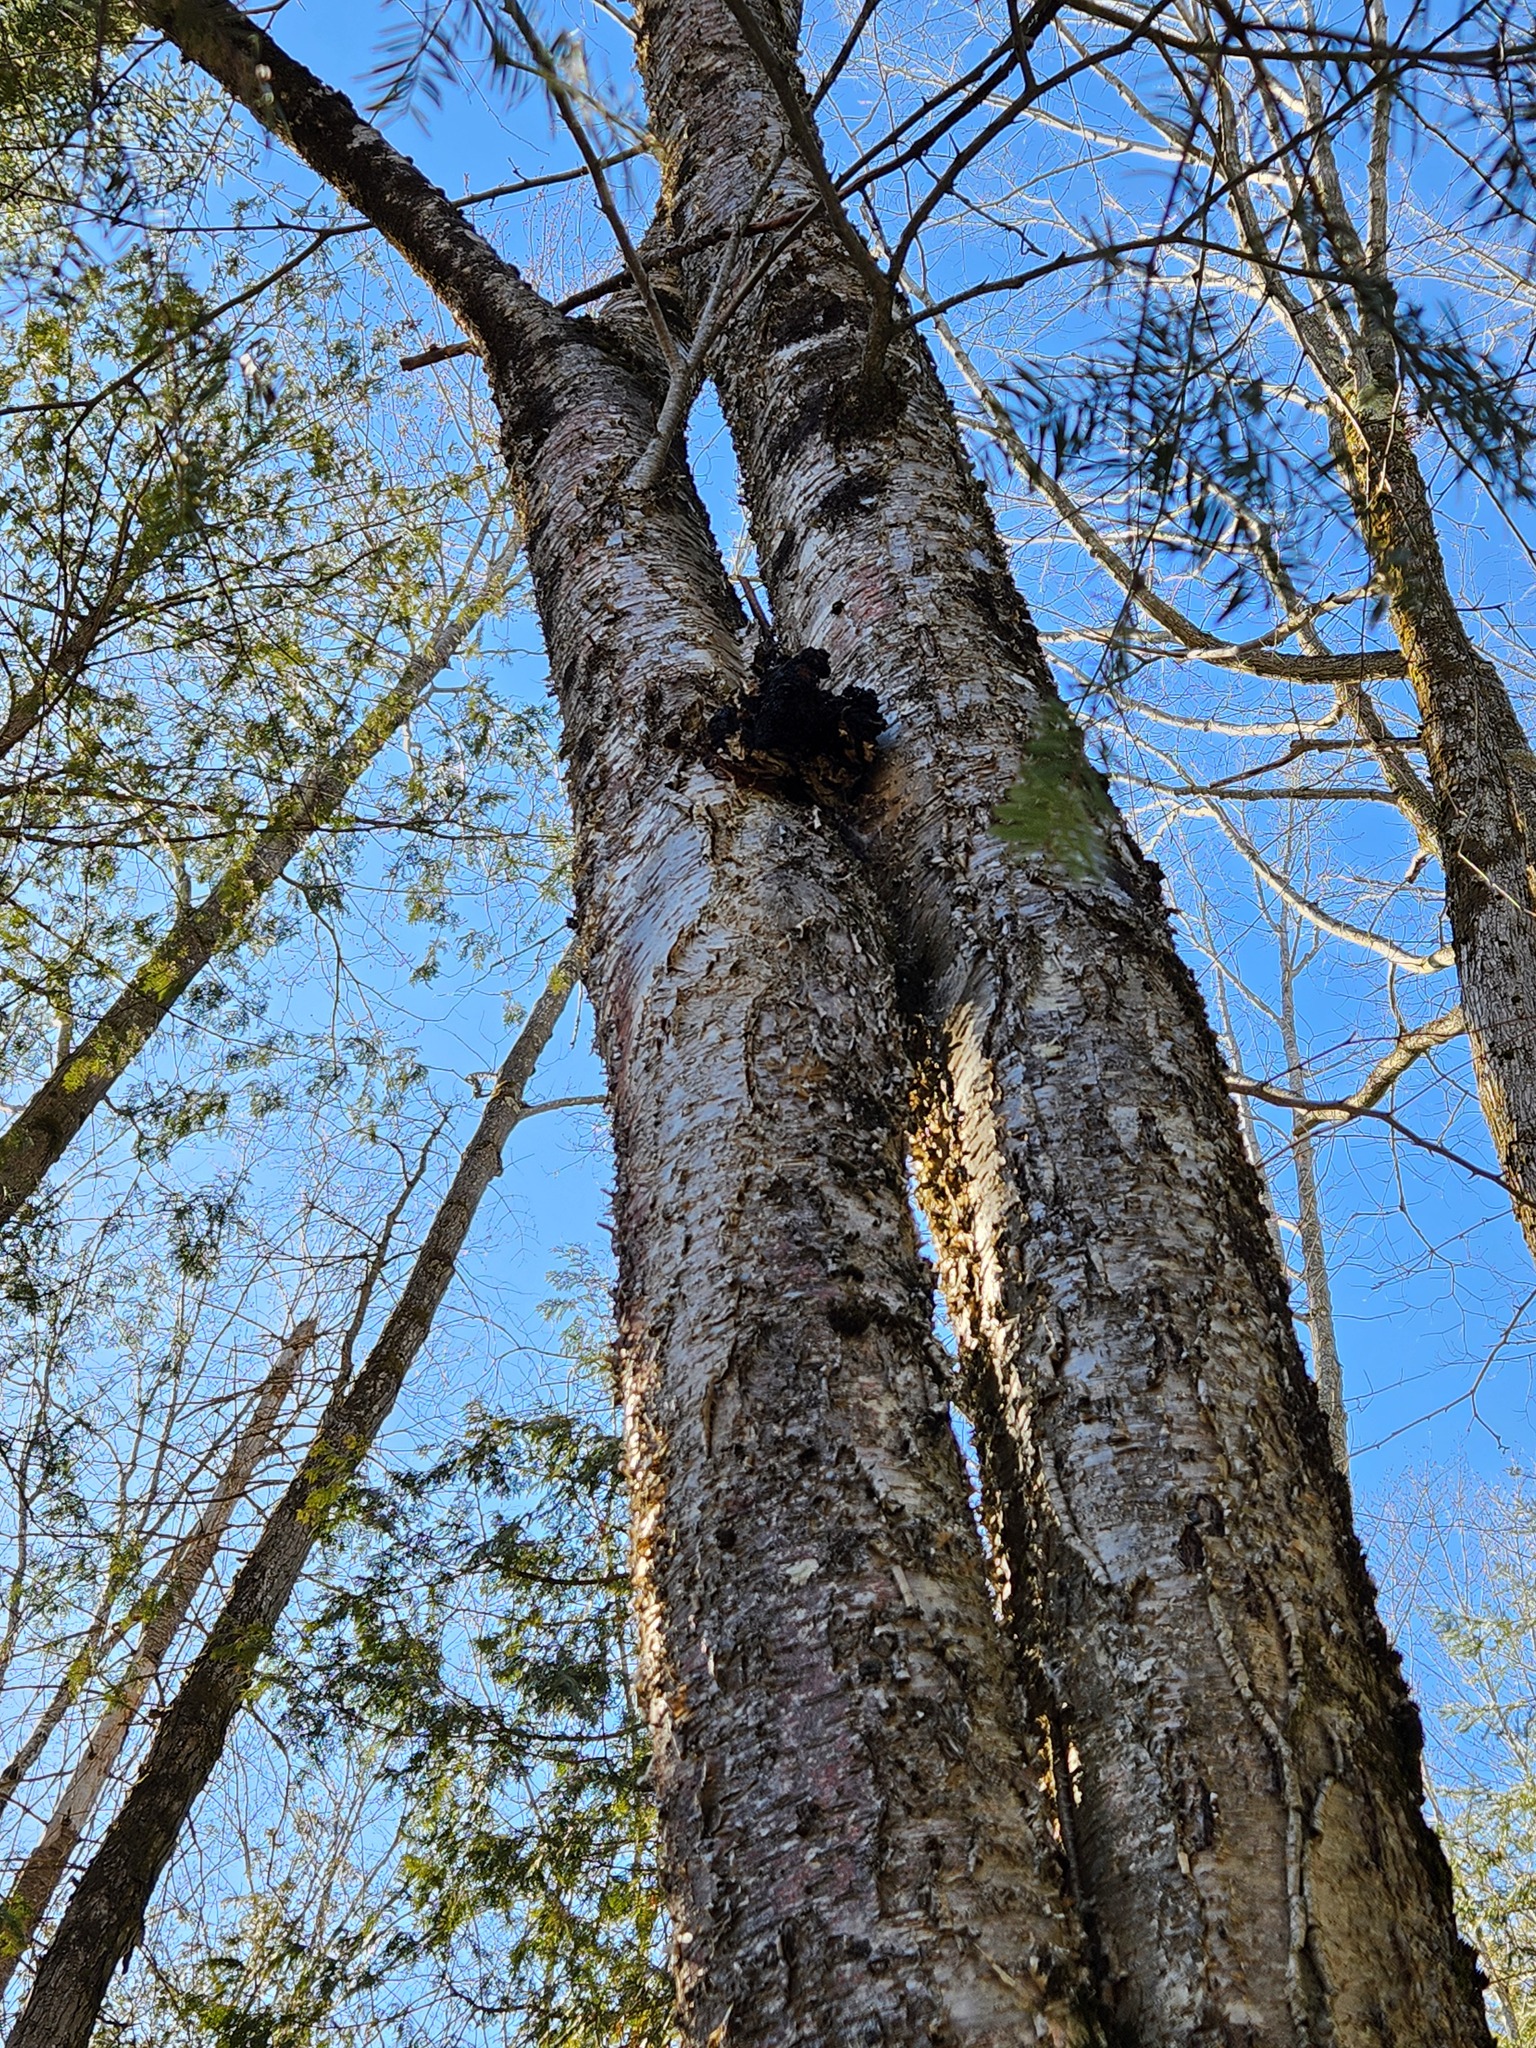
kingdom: Fungi
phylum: Basidiomycota
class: Agaricomycetes
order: Hymenochaetales
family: Hymenochaetaceae
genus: Inonotus
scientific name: Inonotus obliquus
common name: Chaga
